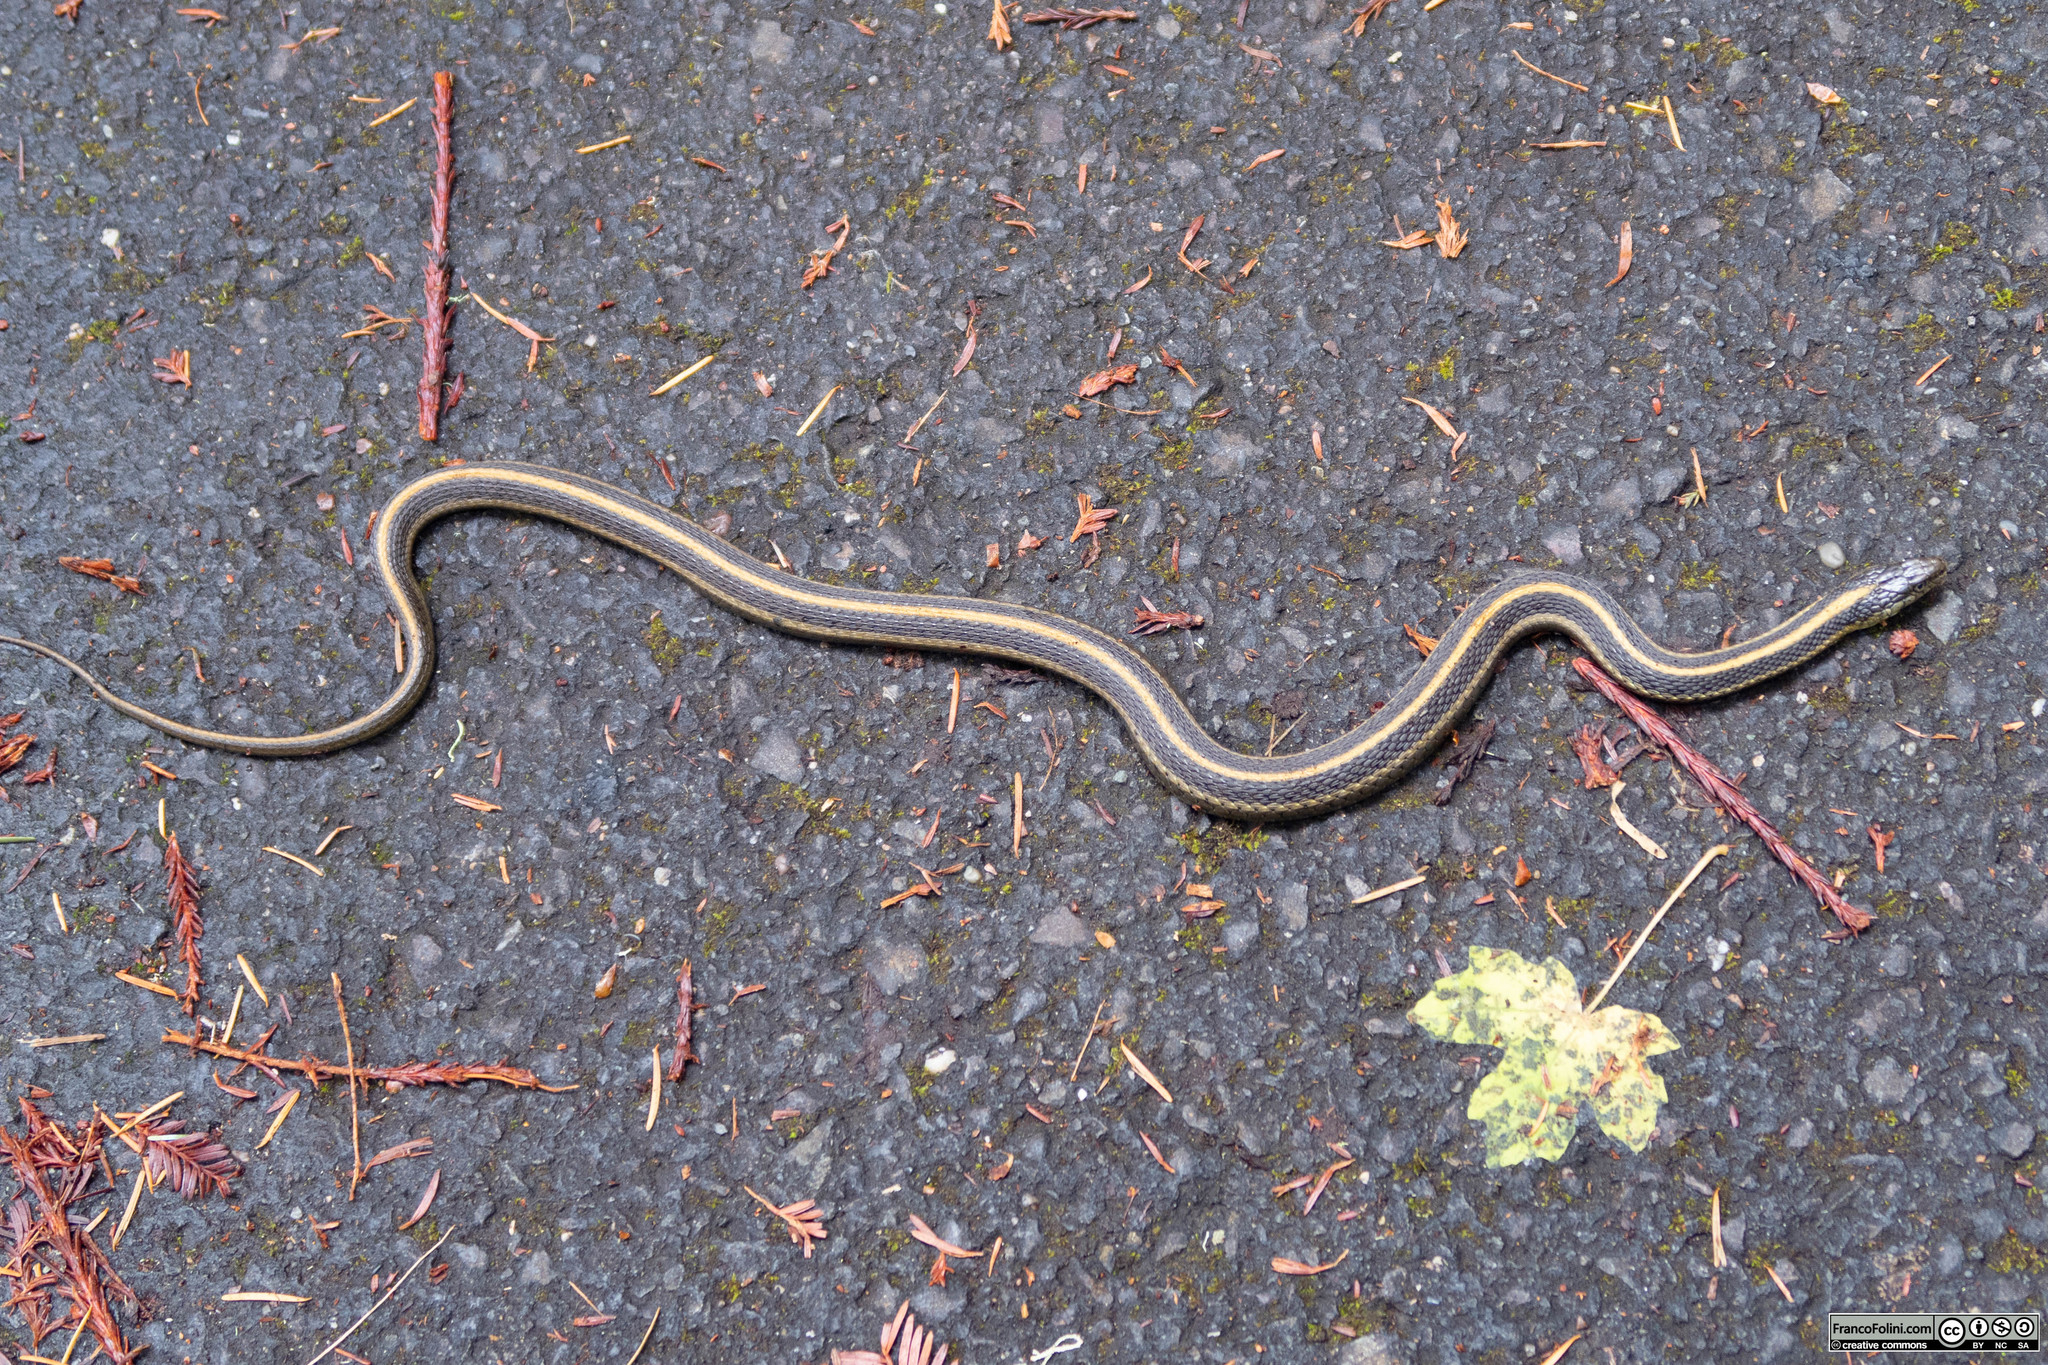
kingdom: Animalia
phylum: Chordata
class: Squamata
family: Colubridae
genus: Thamnophis
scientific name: Thamnophis atratus
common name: Pacific coast aquatic garter snake
